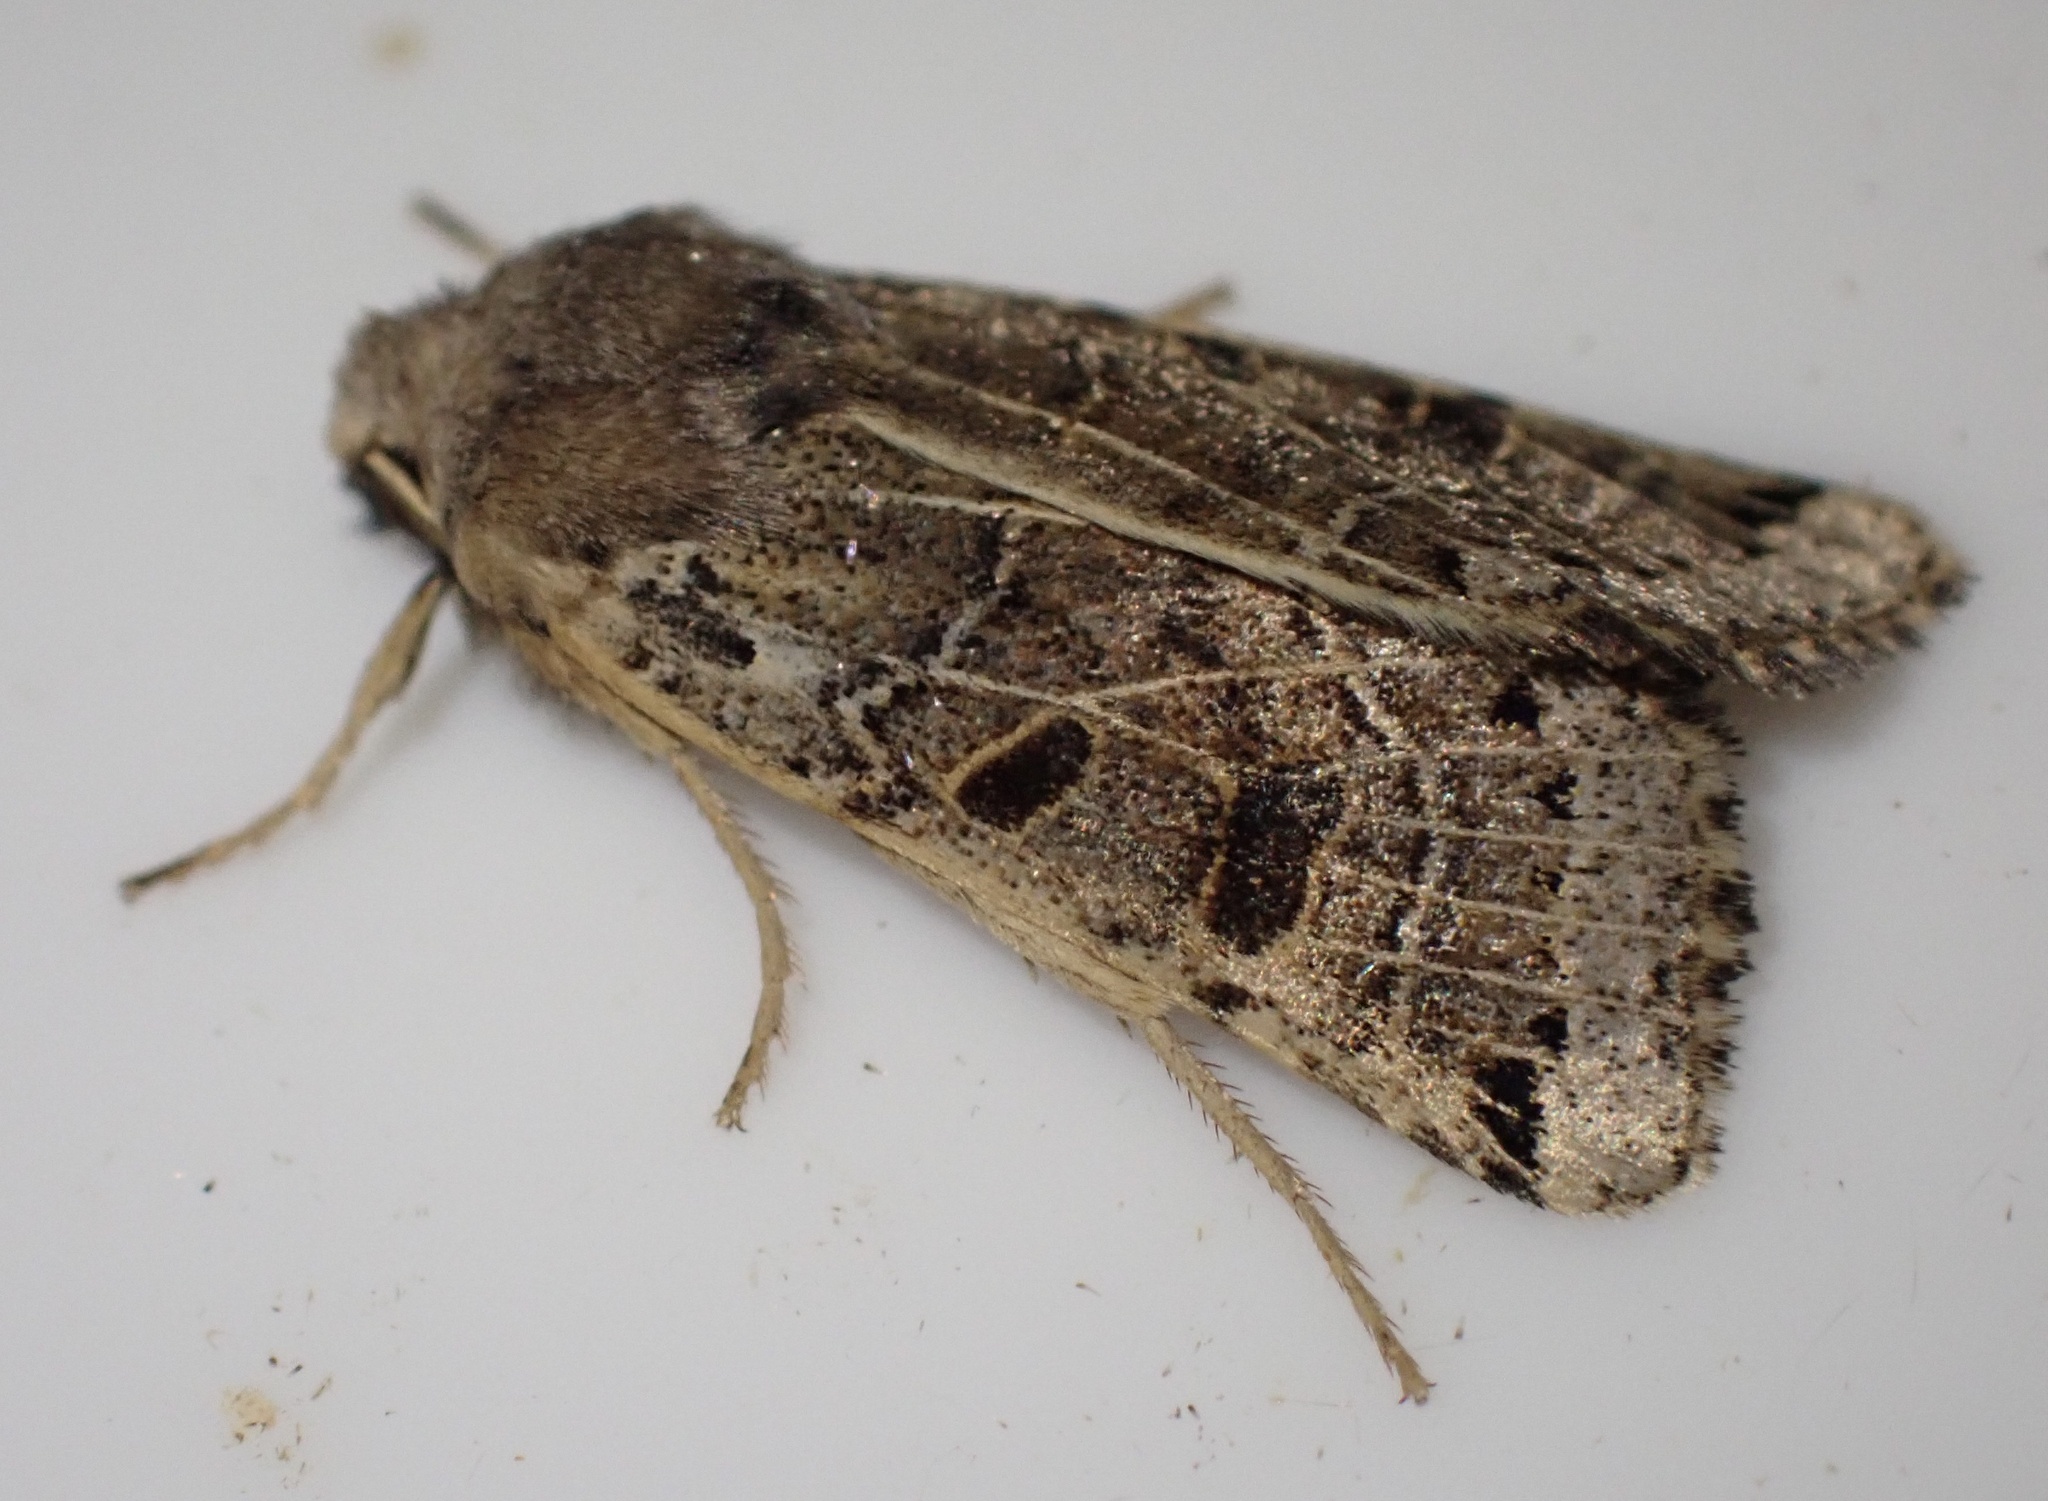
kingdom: Animalia
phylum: Arthropoda
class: Insecta
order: Lepidoptera
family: Noctuidae
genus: Agrochola
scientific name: Agrochola lunosa
